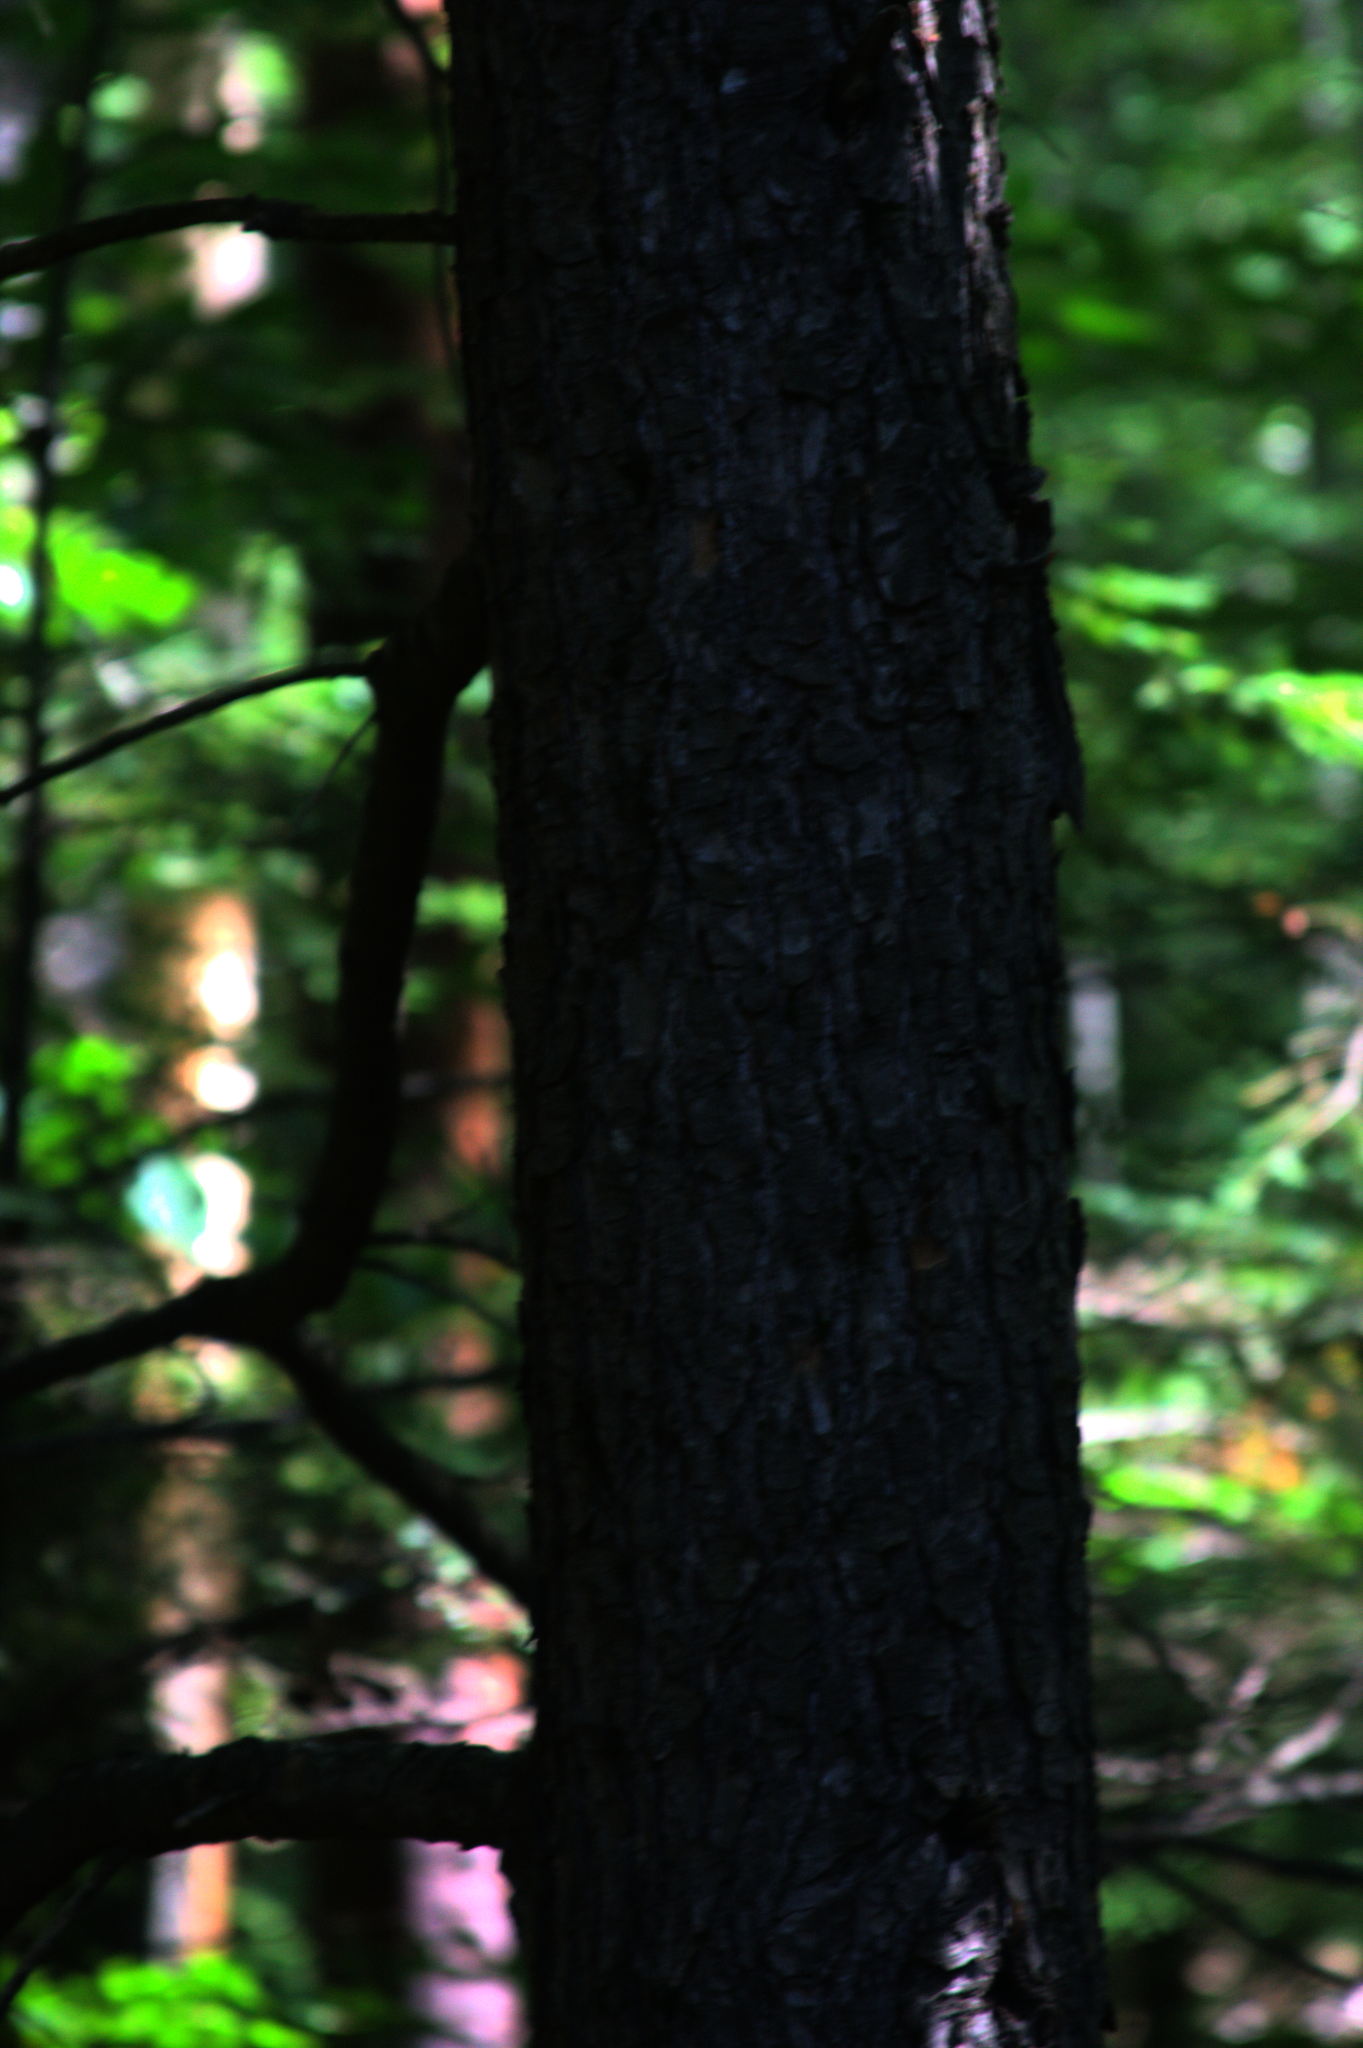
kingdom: Plantae
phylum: Tracheophyta
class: Pinopsida
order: Pinales
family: Pinaceae
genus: Tsuga
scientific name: Tsuga canadensis
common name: Eastern hemlock
